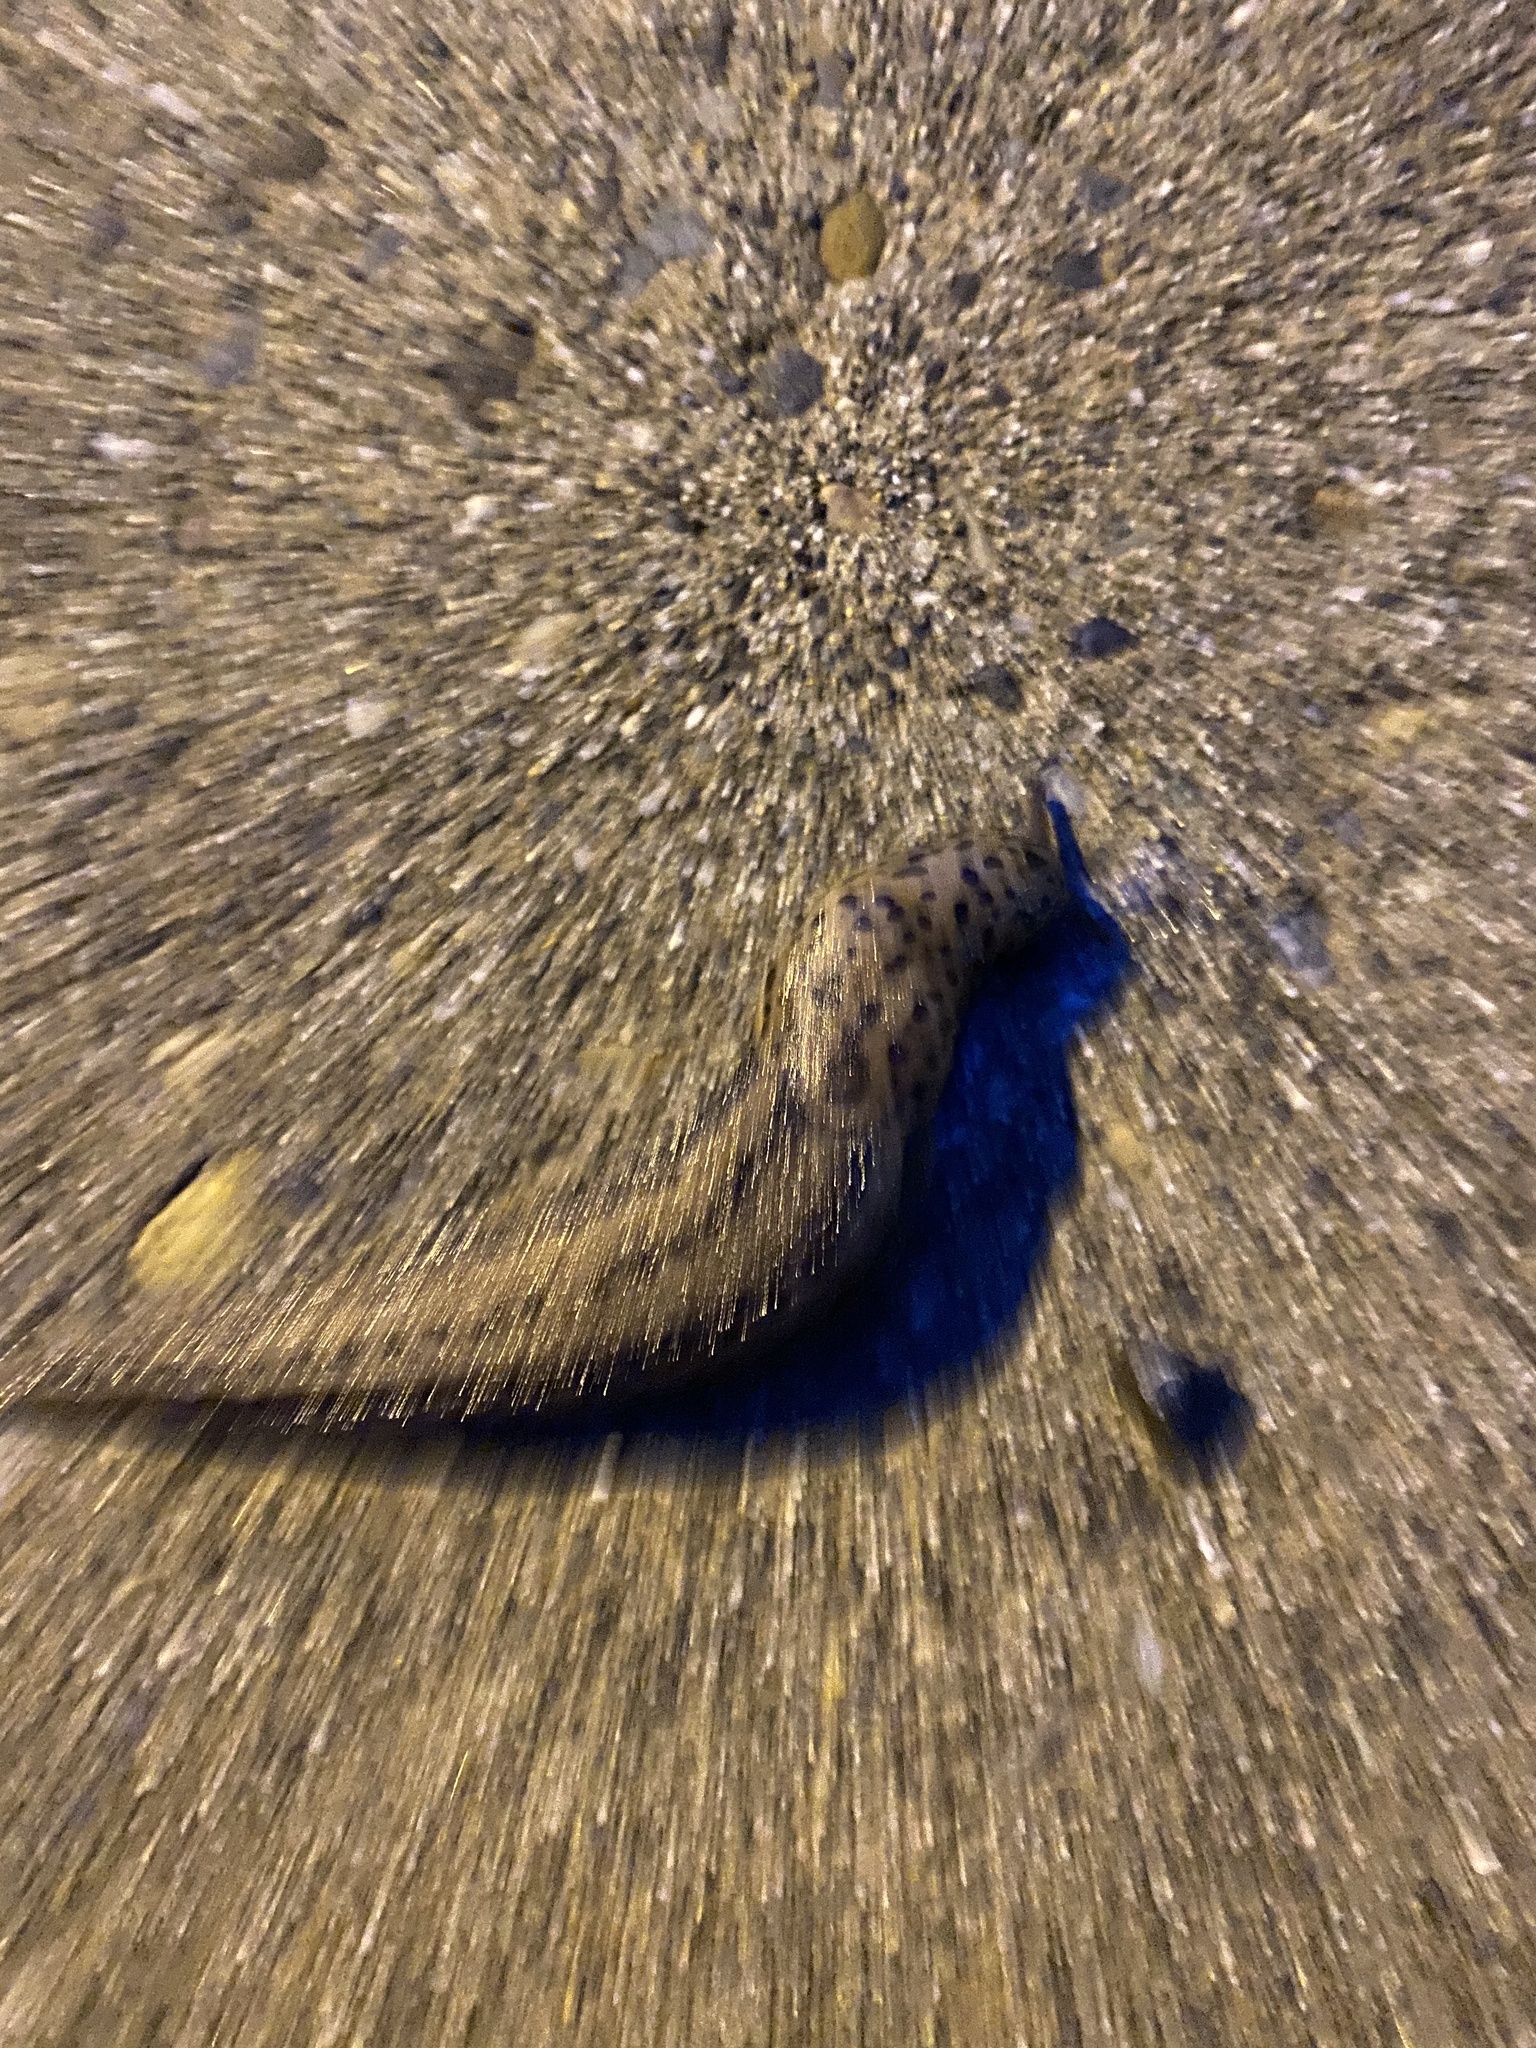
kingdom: Animalia
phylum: Mollusca
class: Gastropoda
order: Stylommatophora
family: Limacidae
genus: Limax
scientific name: Limax maximus
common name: Great grey slug
